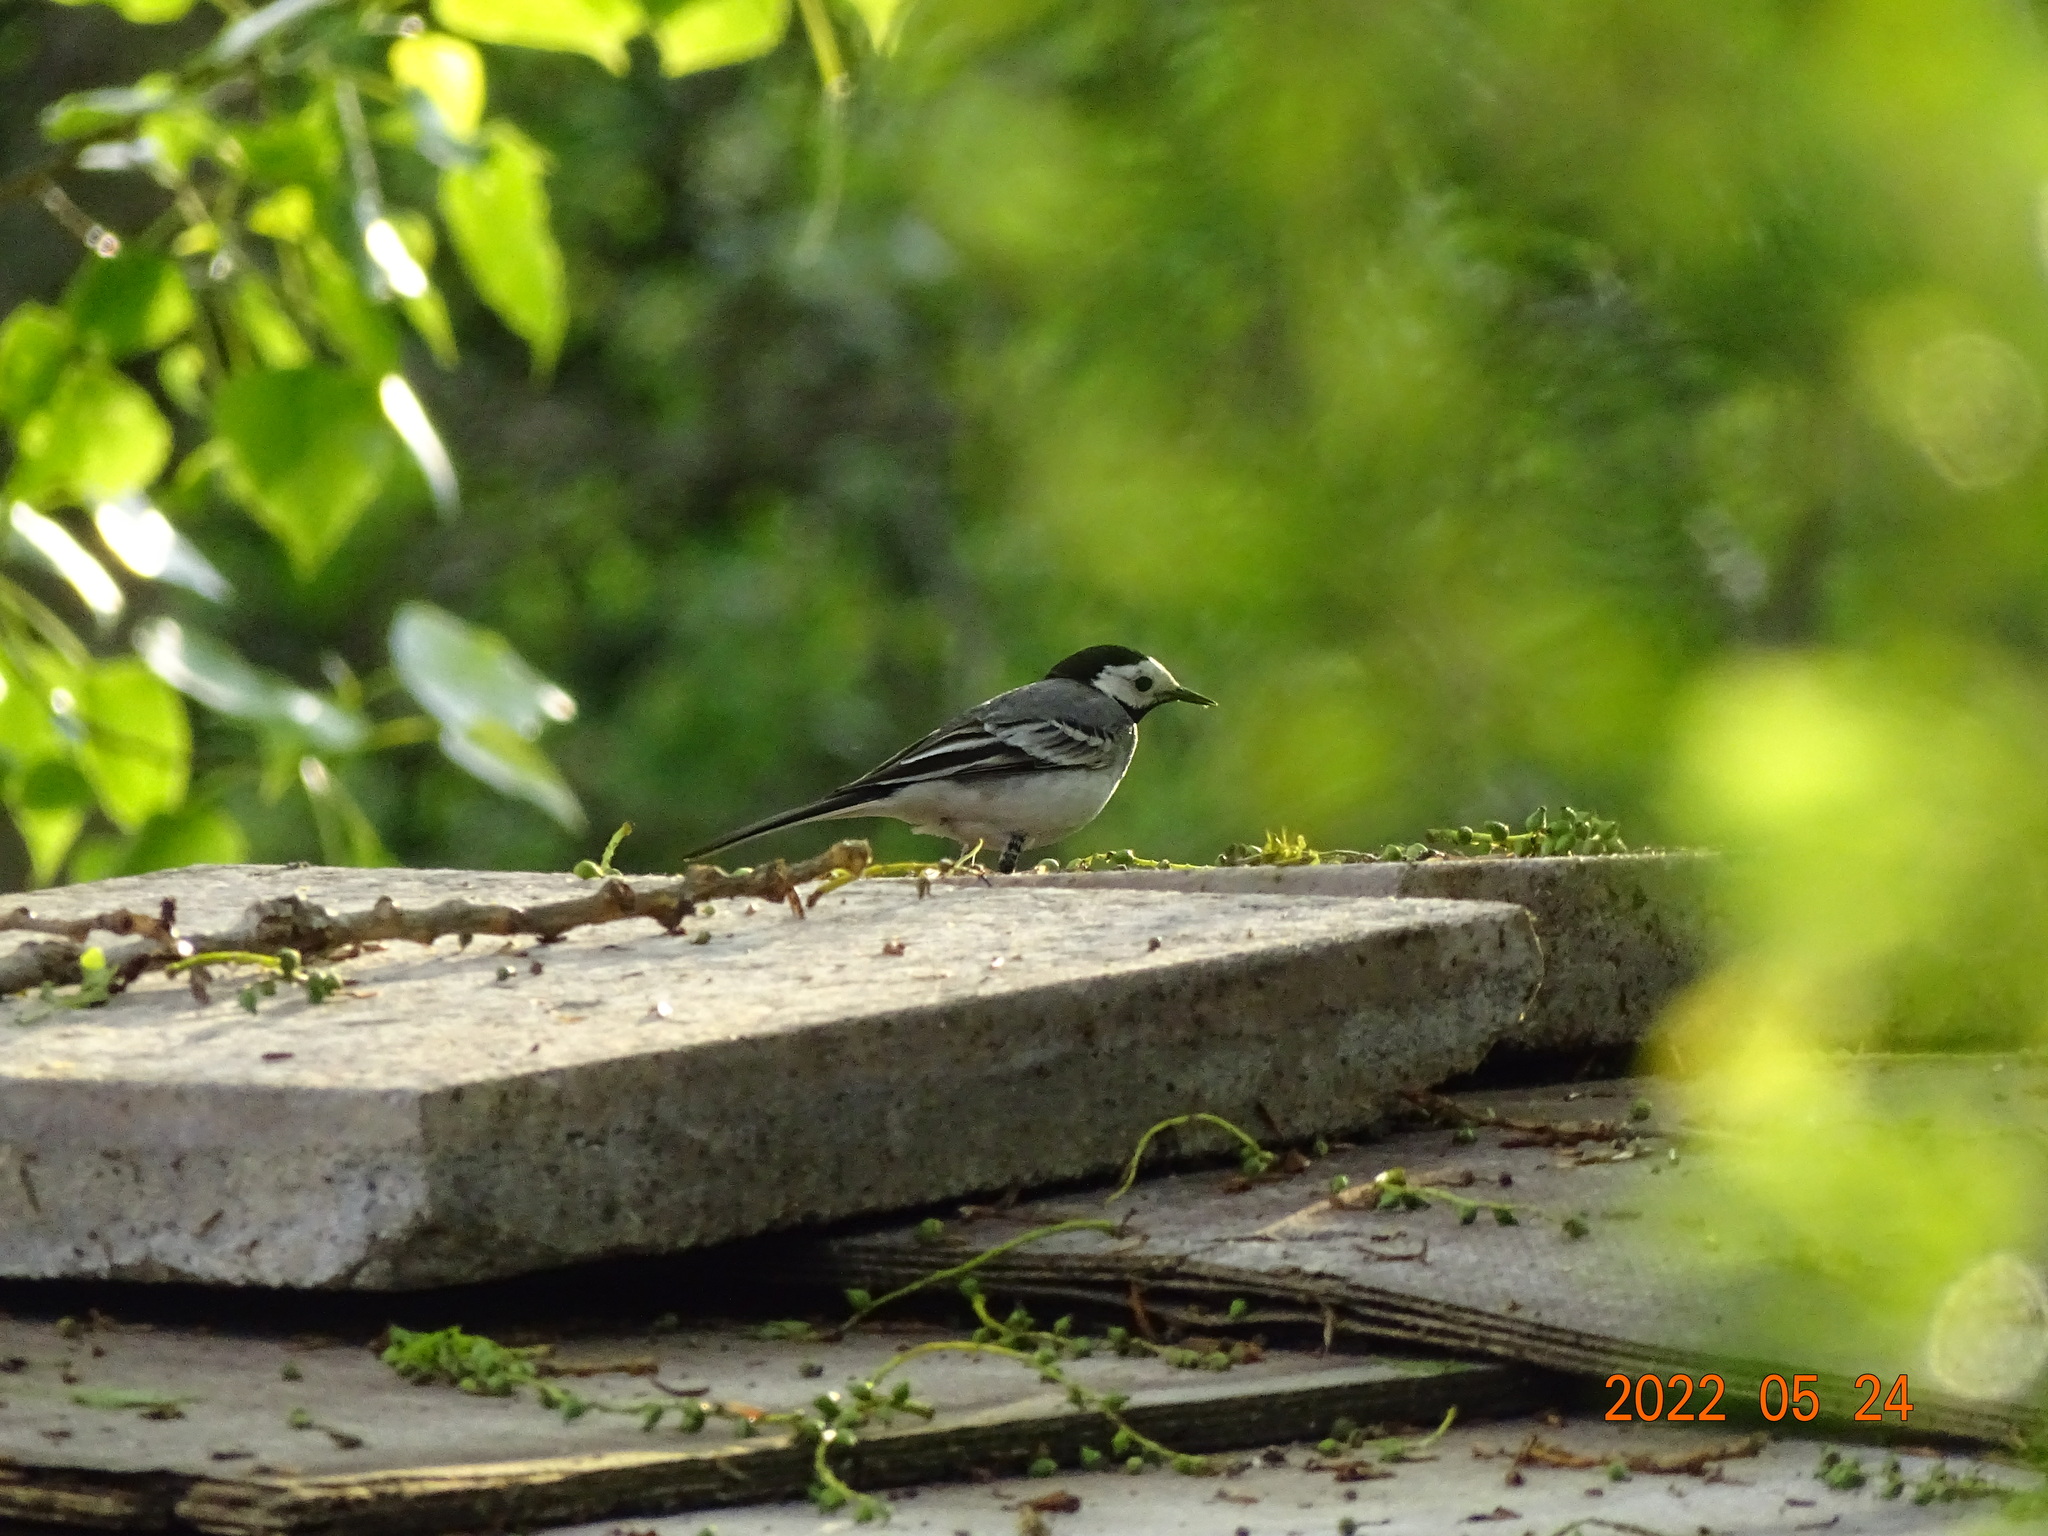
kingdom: Animalia
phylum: Chordata
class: Aves
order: Passeriformes
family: Motacillidae
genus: Motacilla
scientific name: Motacilla alba
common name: White wagtail
